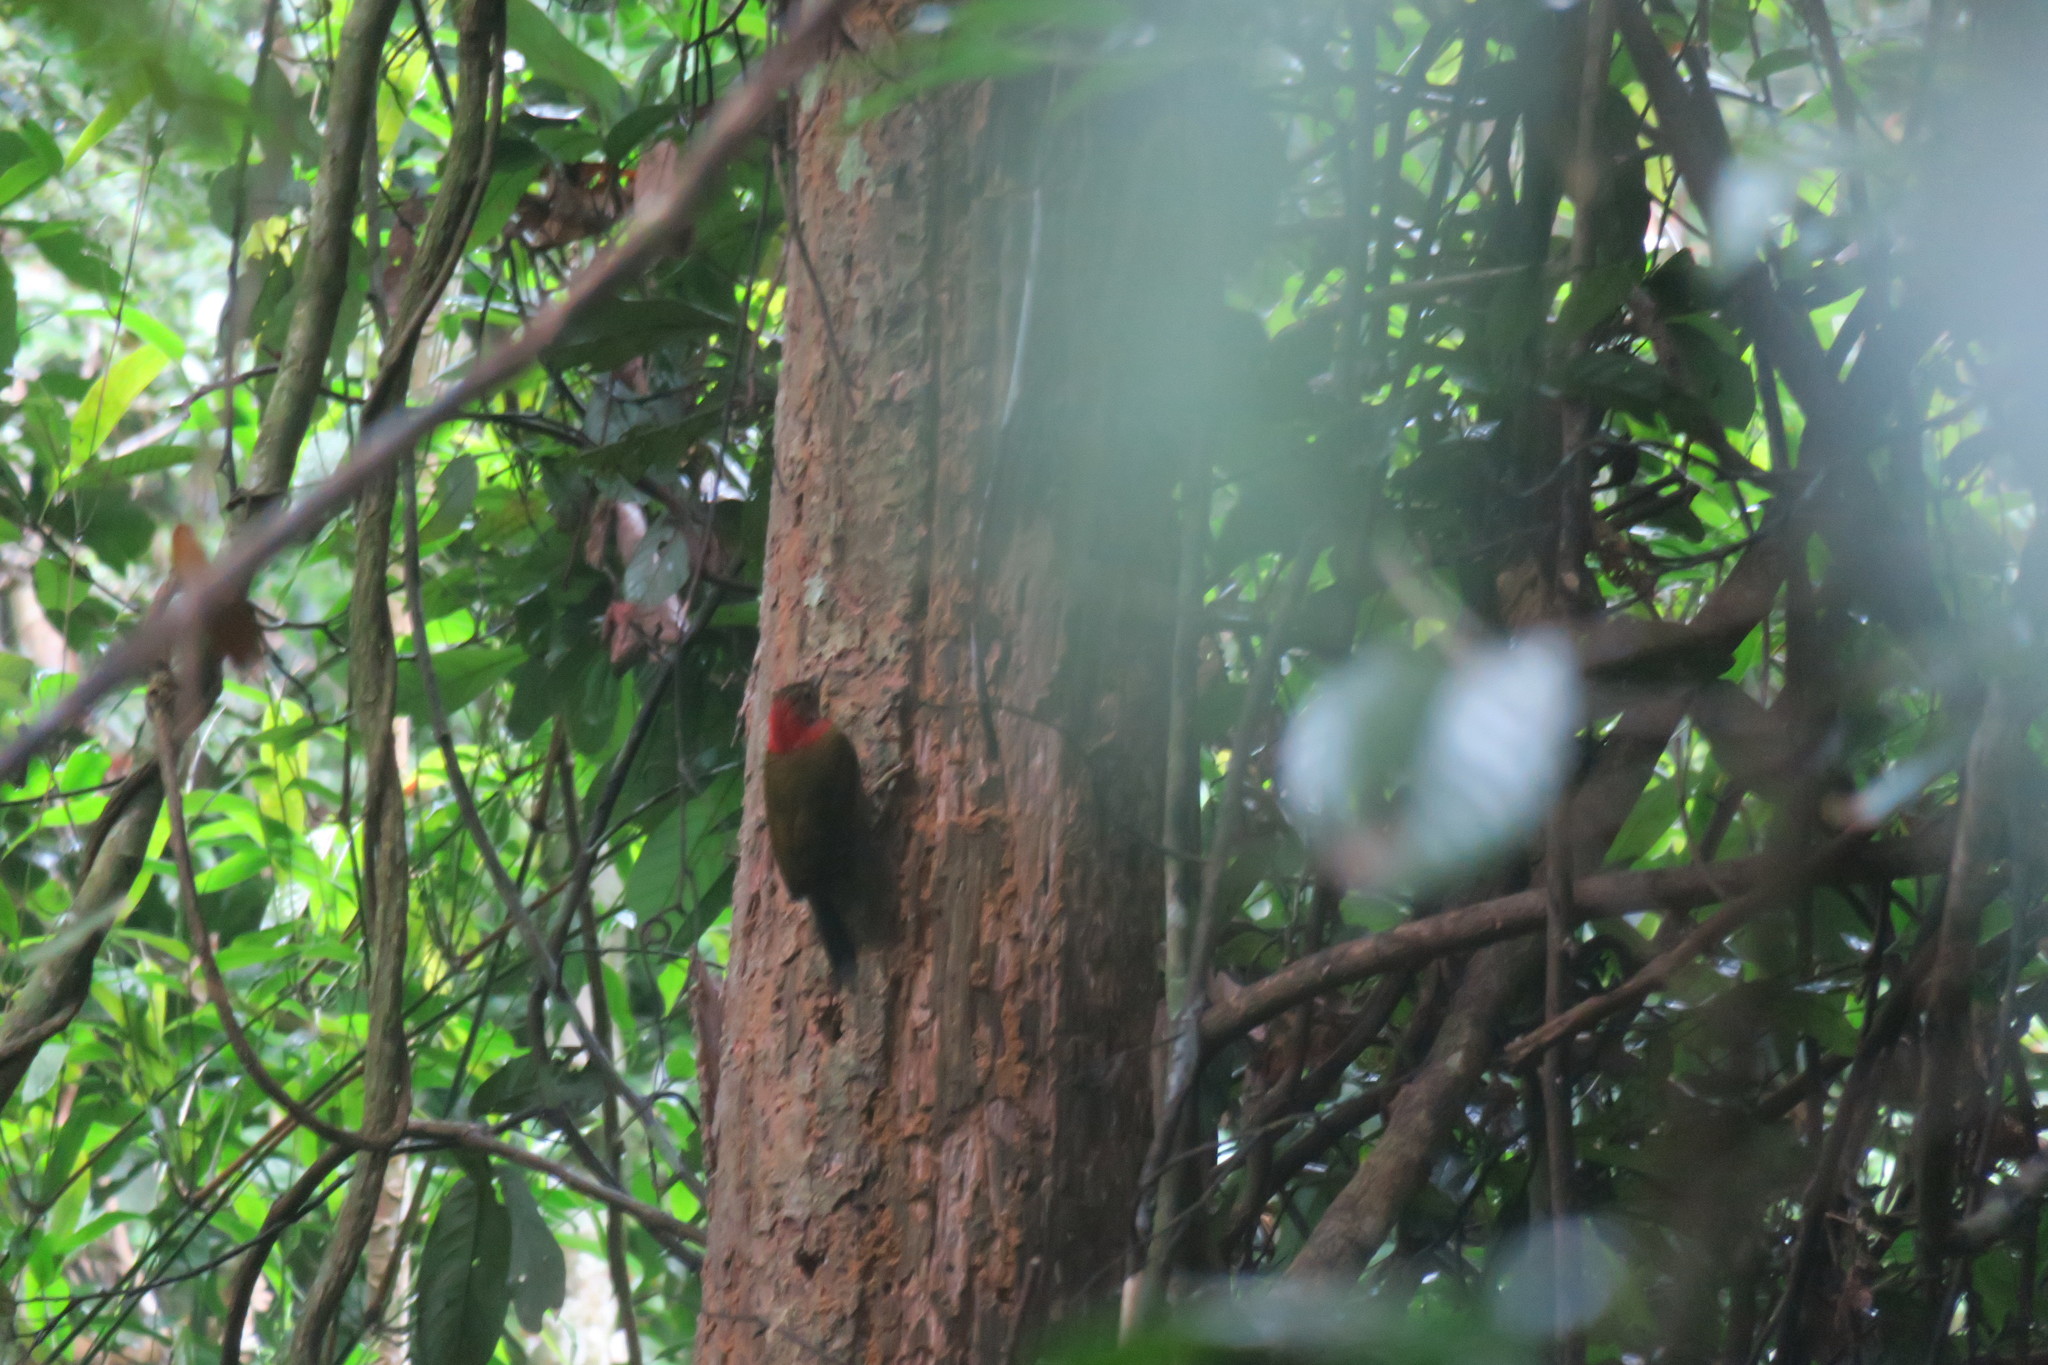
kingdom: Animalia
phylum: Chordata
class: Aves
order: Piciformes
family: Picidae
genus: Picus
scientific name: Picus rabieri
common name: Red-collared woodpecker
